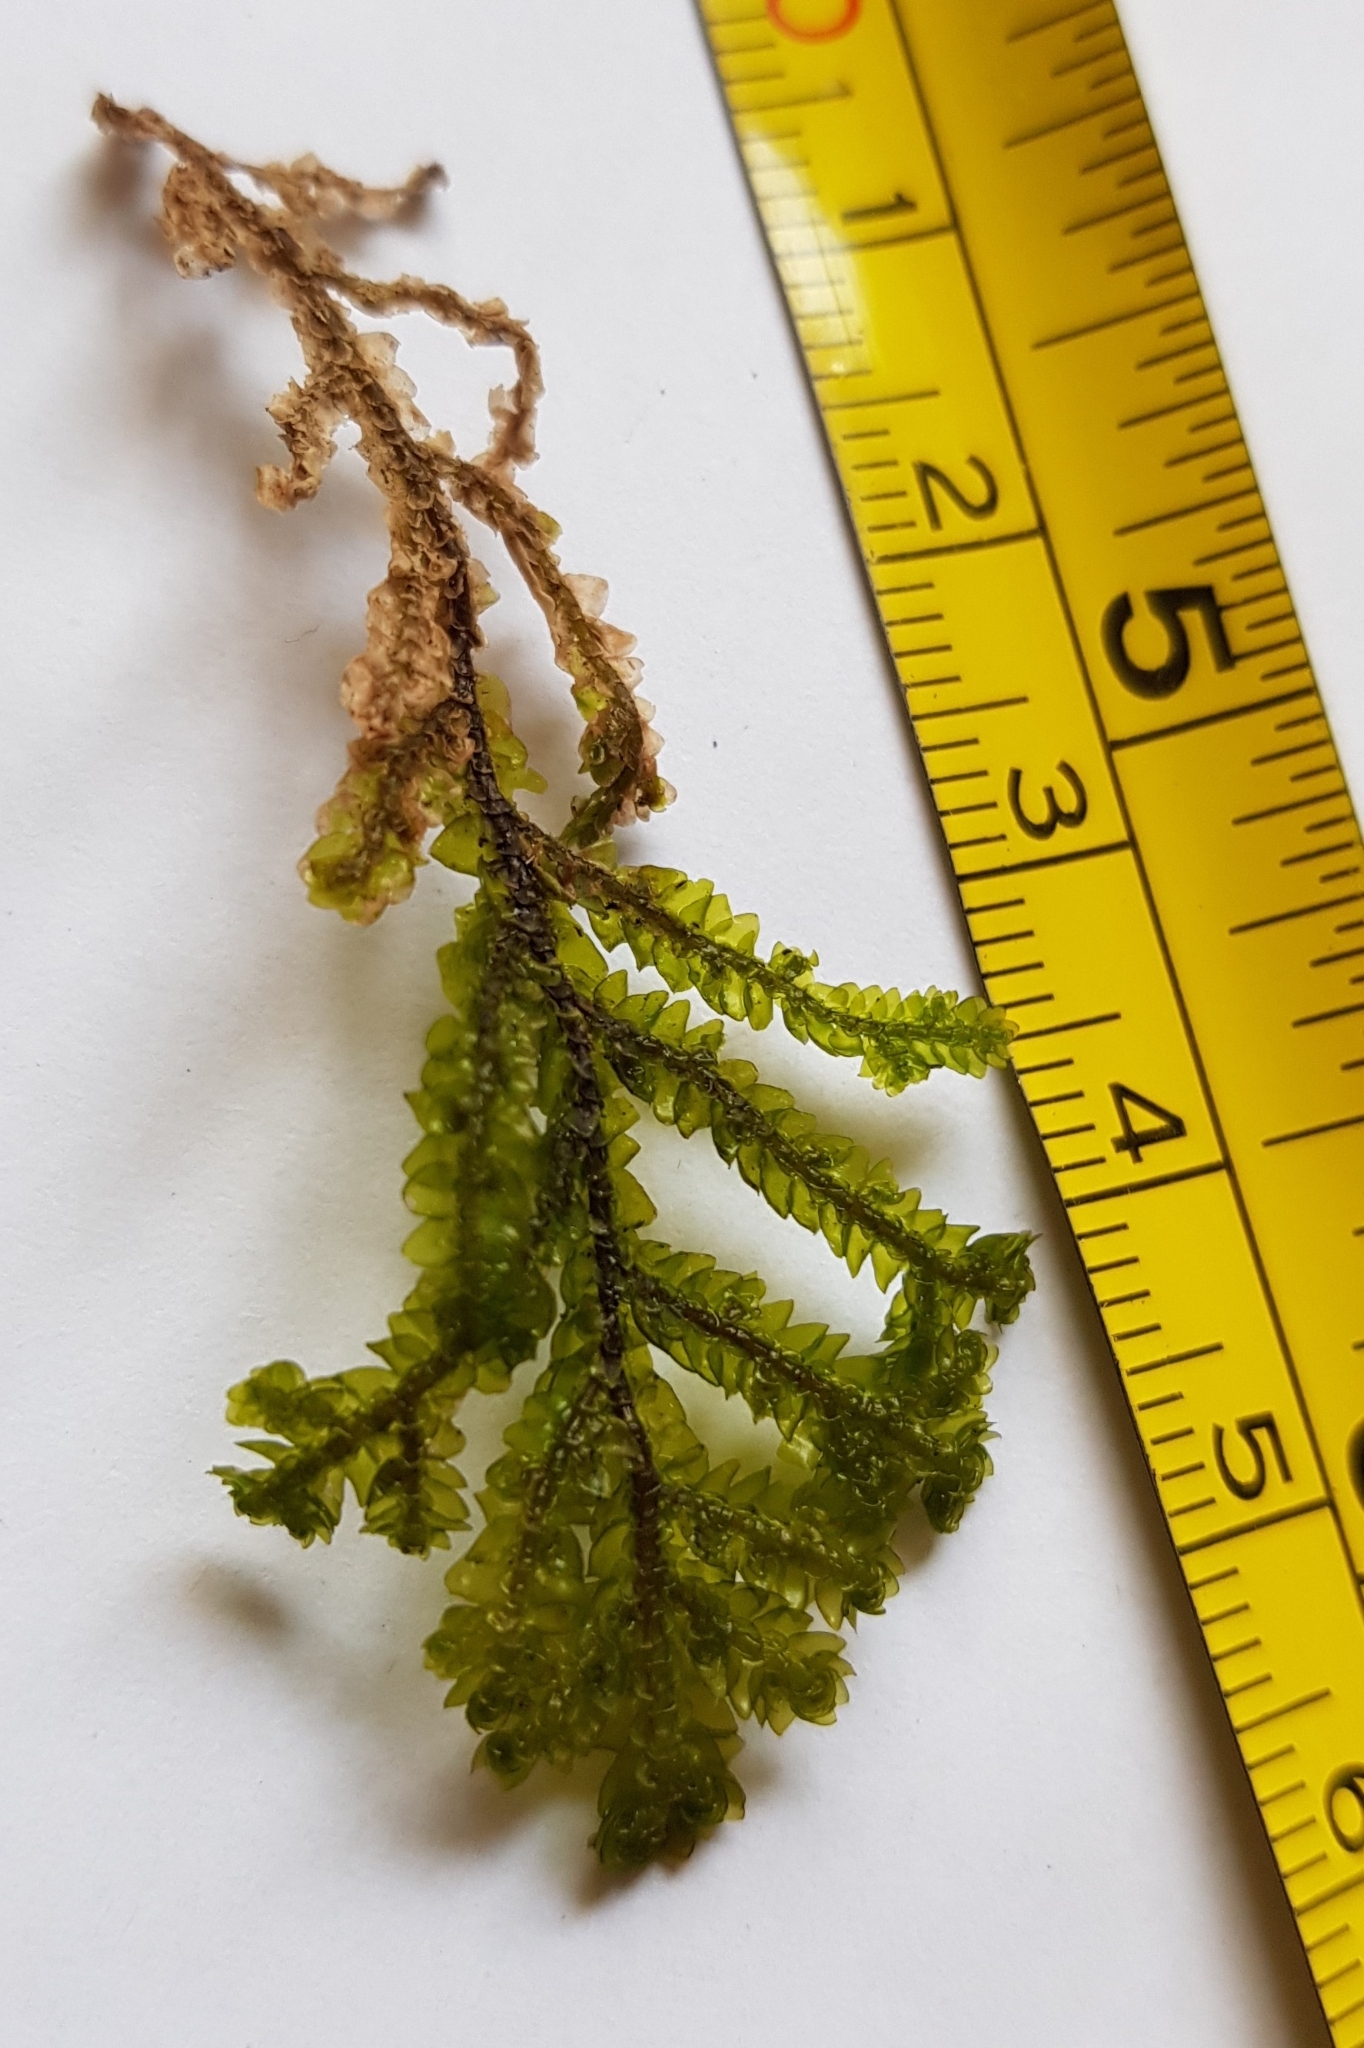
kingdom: Plantae
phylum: Marchantiophyta
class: Jungermanniopsida
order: Porellales
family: Porellaceae
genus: Porella
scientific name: Porella platyphylla
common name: Wall scalewort
